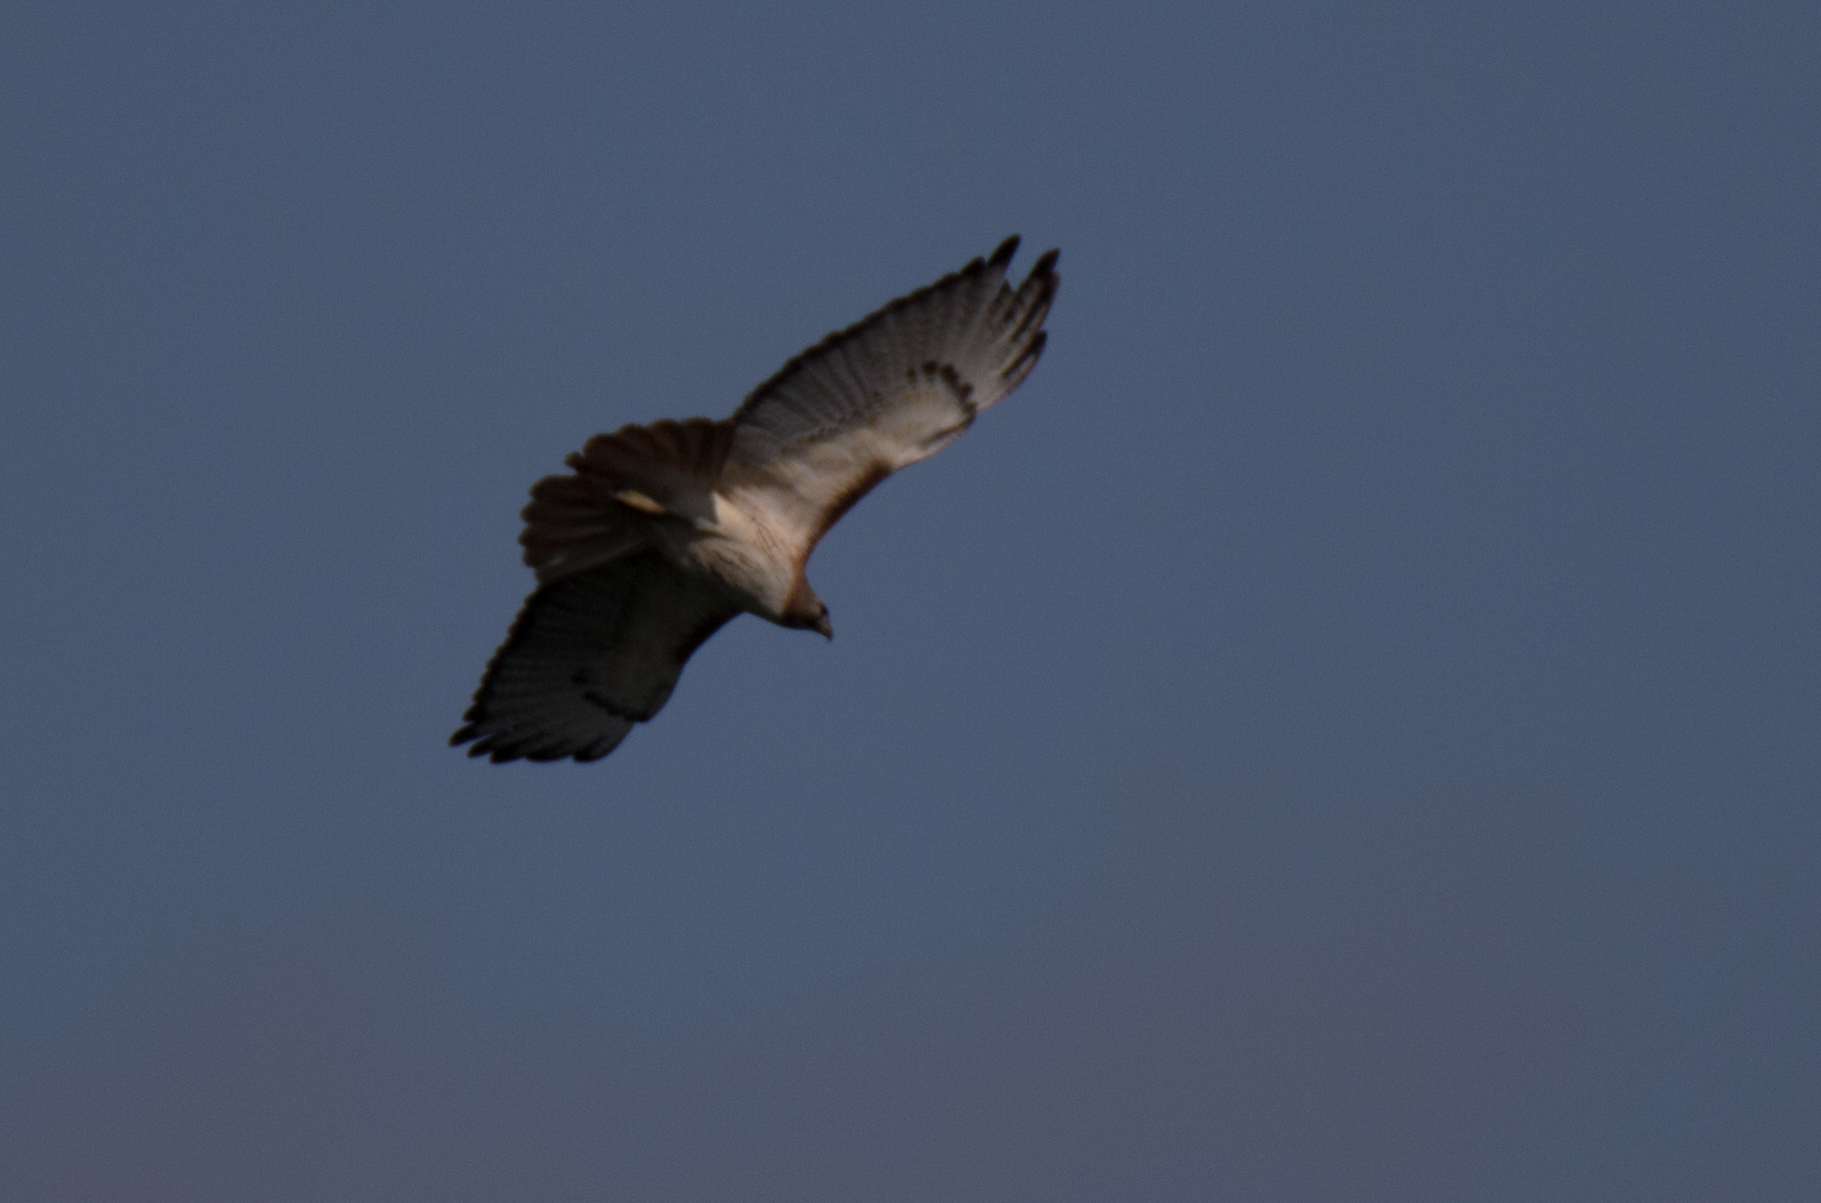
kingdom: Animalia
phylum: Chordata
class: Aves
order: Accipitriformes
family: Accipitridae
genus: Buteo
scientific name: Buteo jamaicensis
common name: Red-tailed hawk
